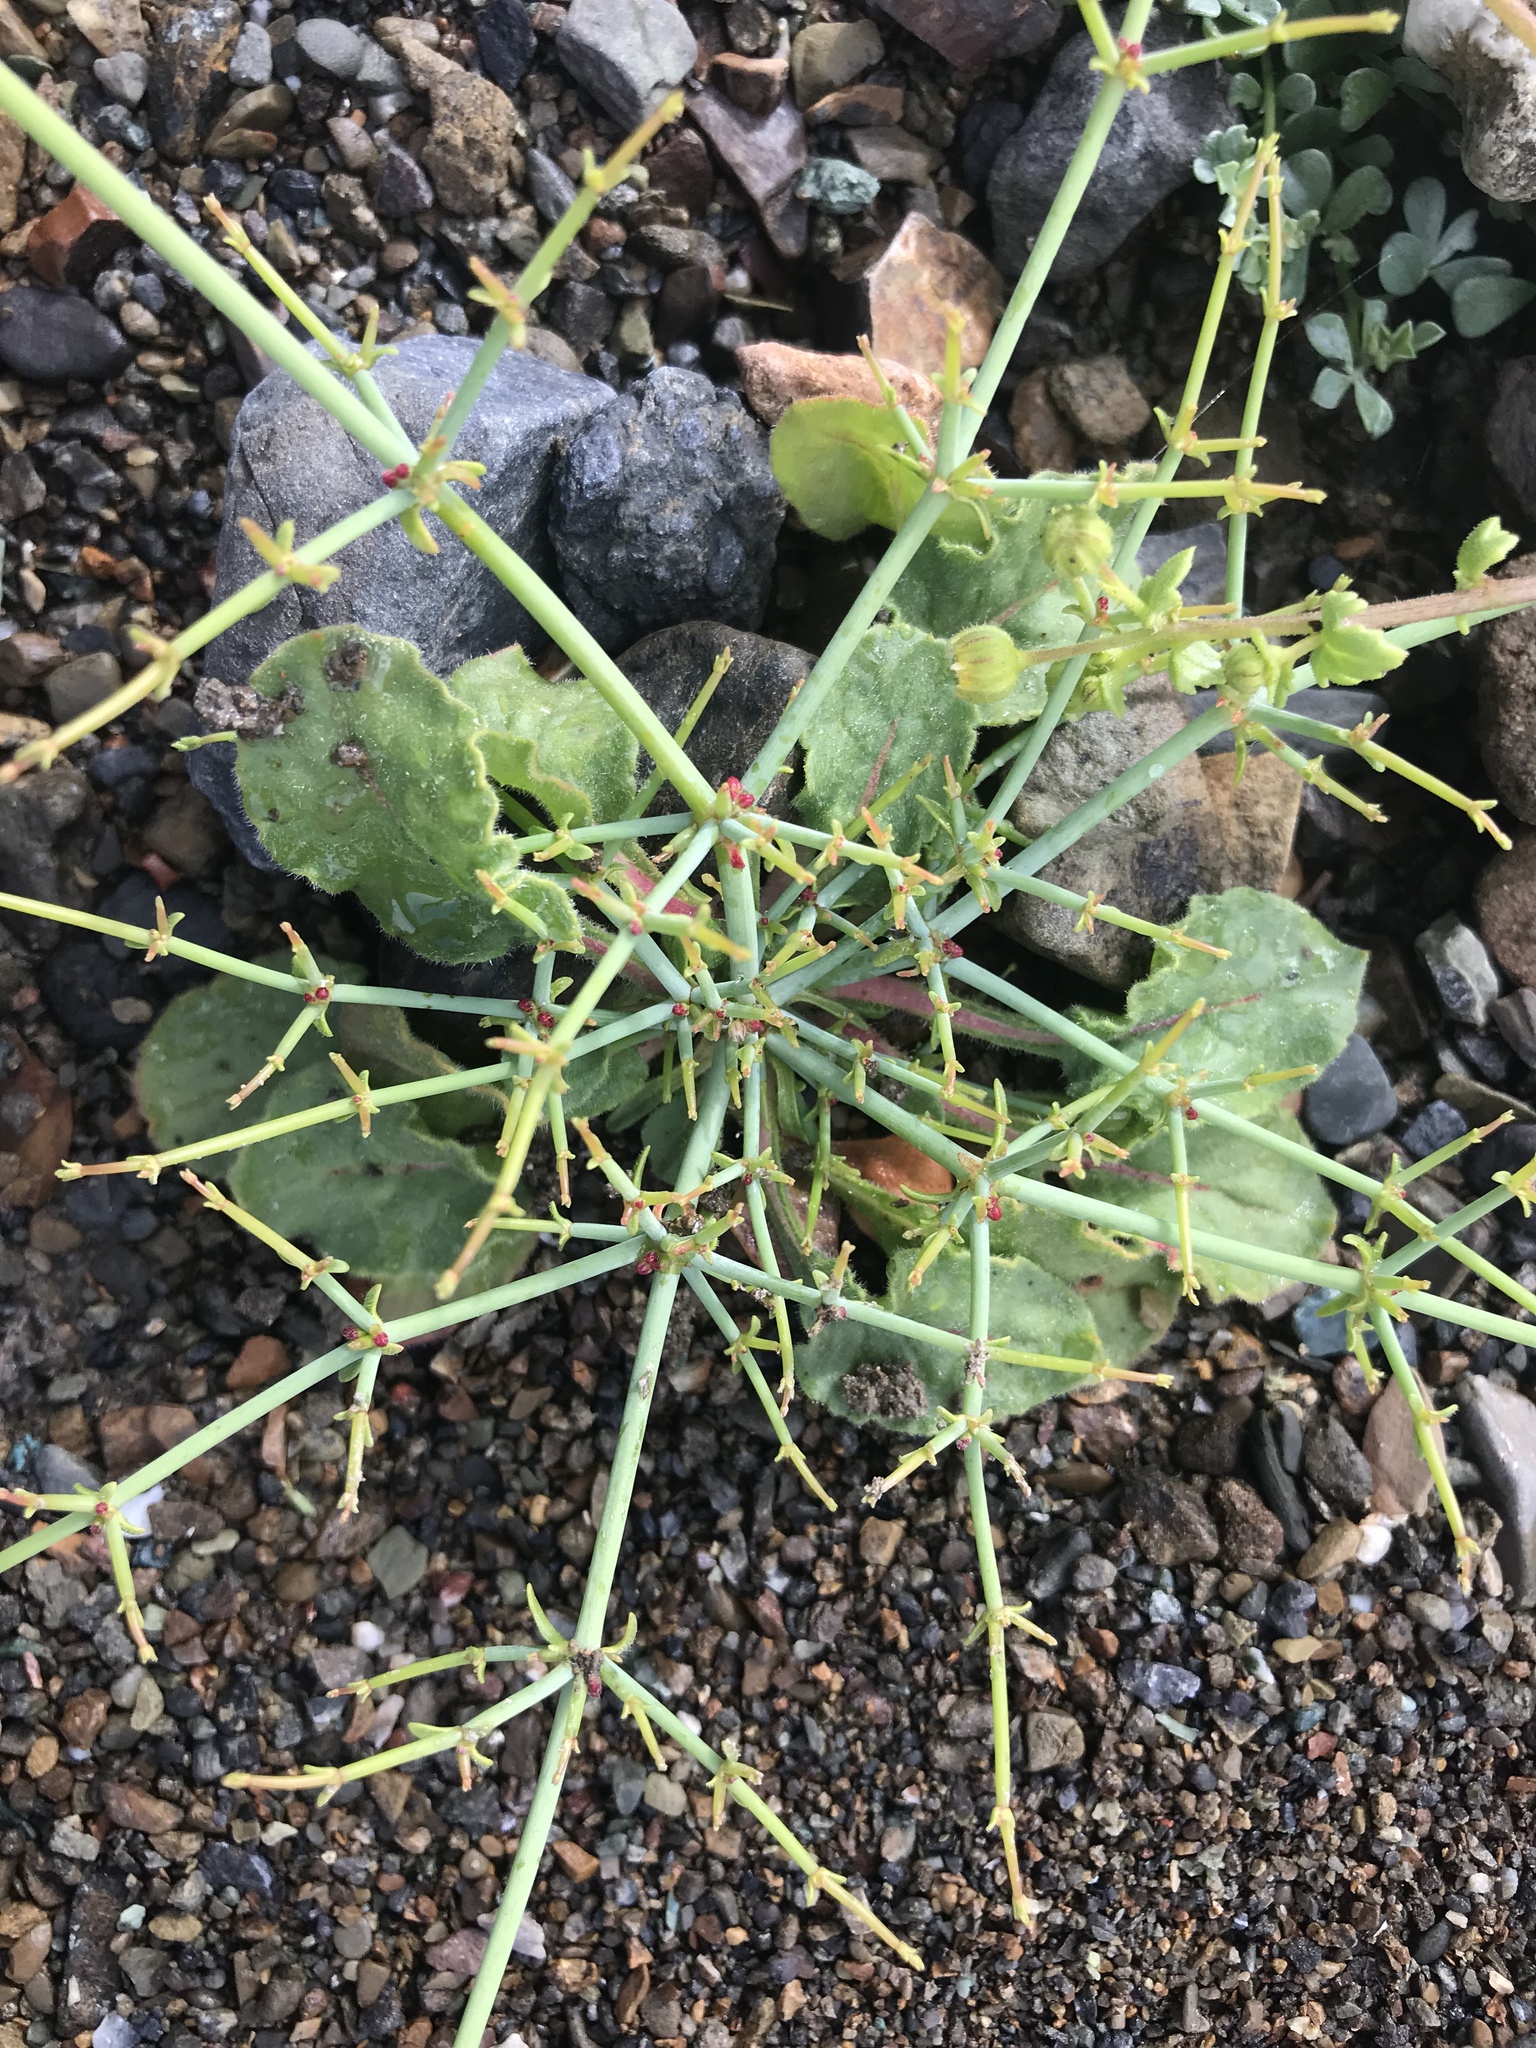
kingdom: Plantae
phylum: Tracheophyta
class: Magnoliopsida
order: Caryophyllales
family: Polygonaceae
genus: Eriogonum
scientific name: Eriogonum intricatum
